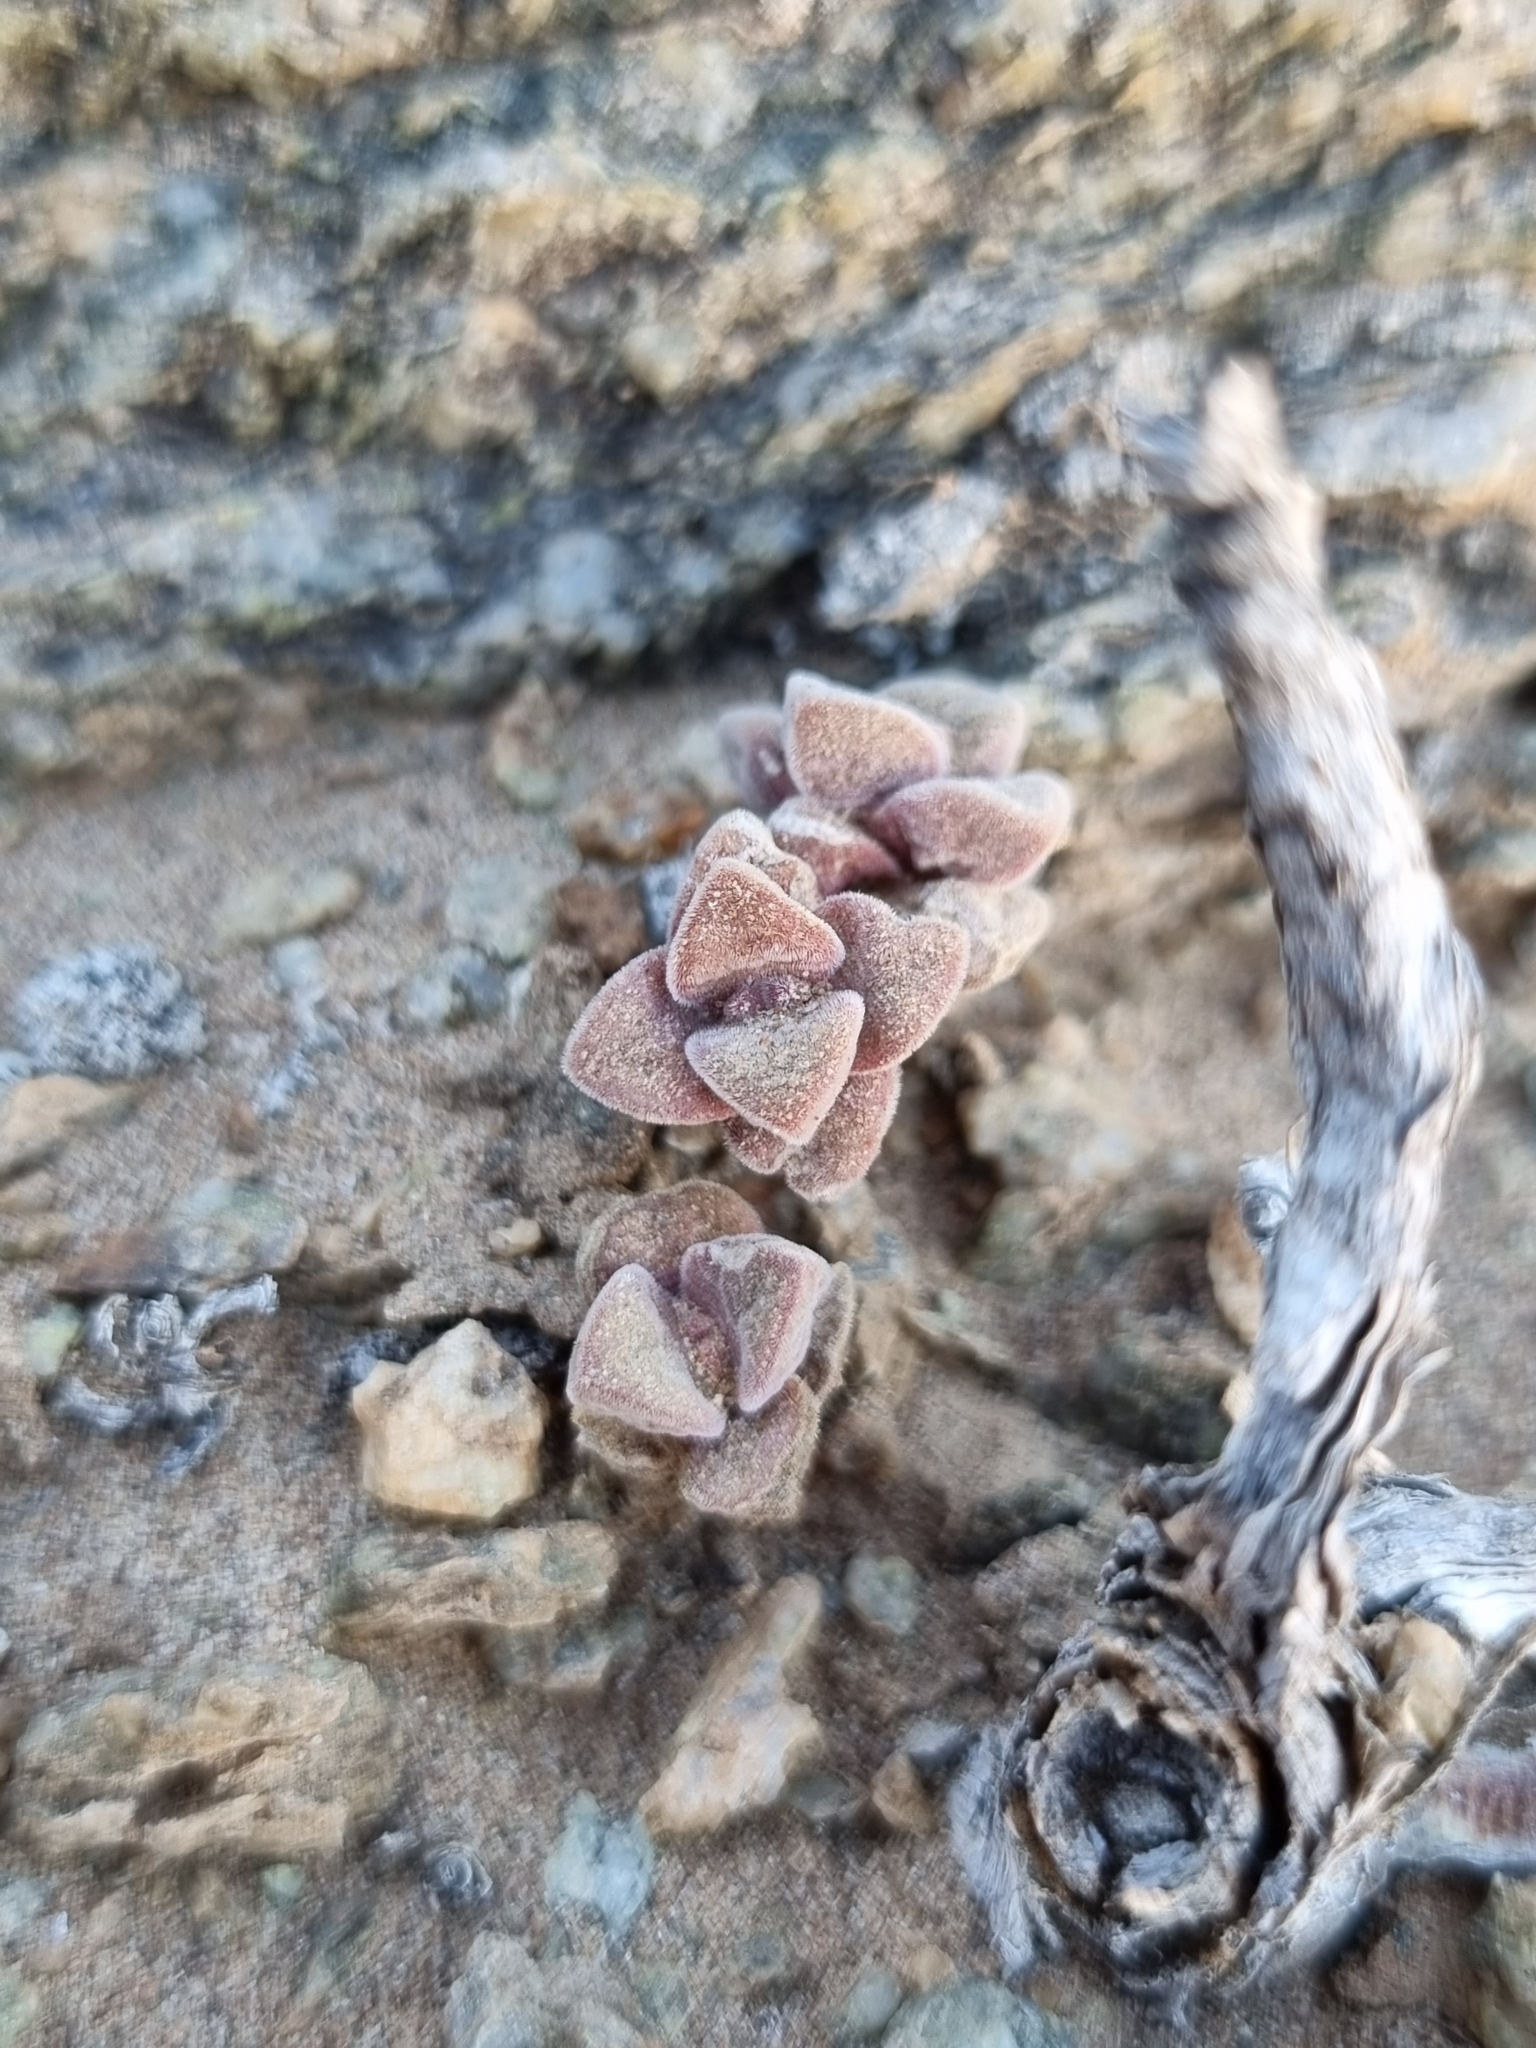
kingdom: Plantae
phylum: Tracheophyta
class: Magnoliopsida
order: Saxifragales
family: Crassulaceae
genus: Crassula
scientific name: Crassula elegans
